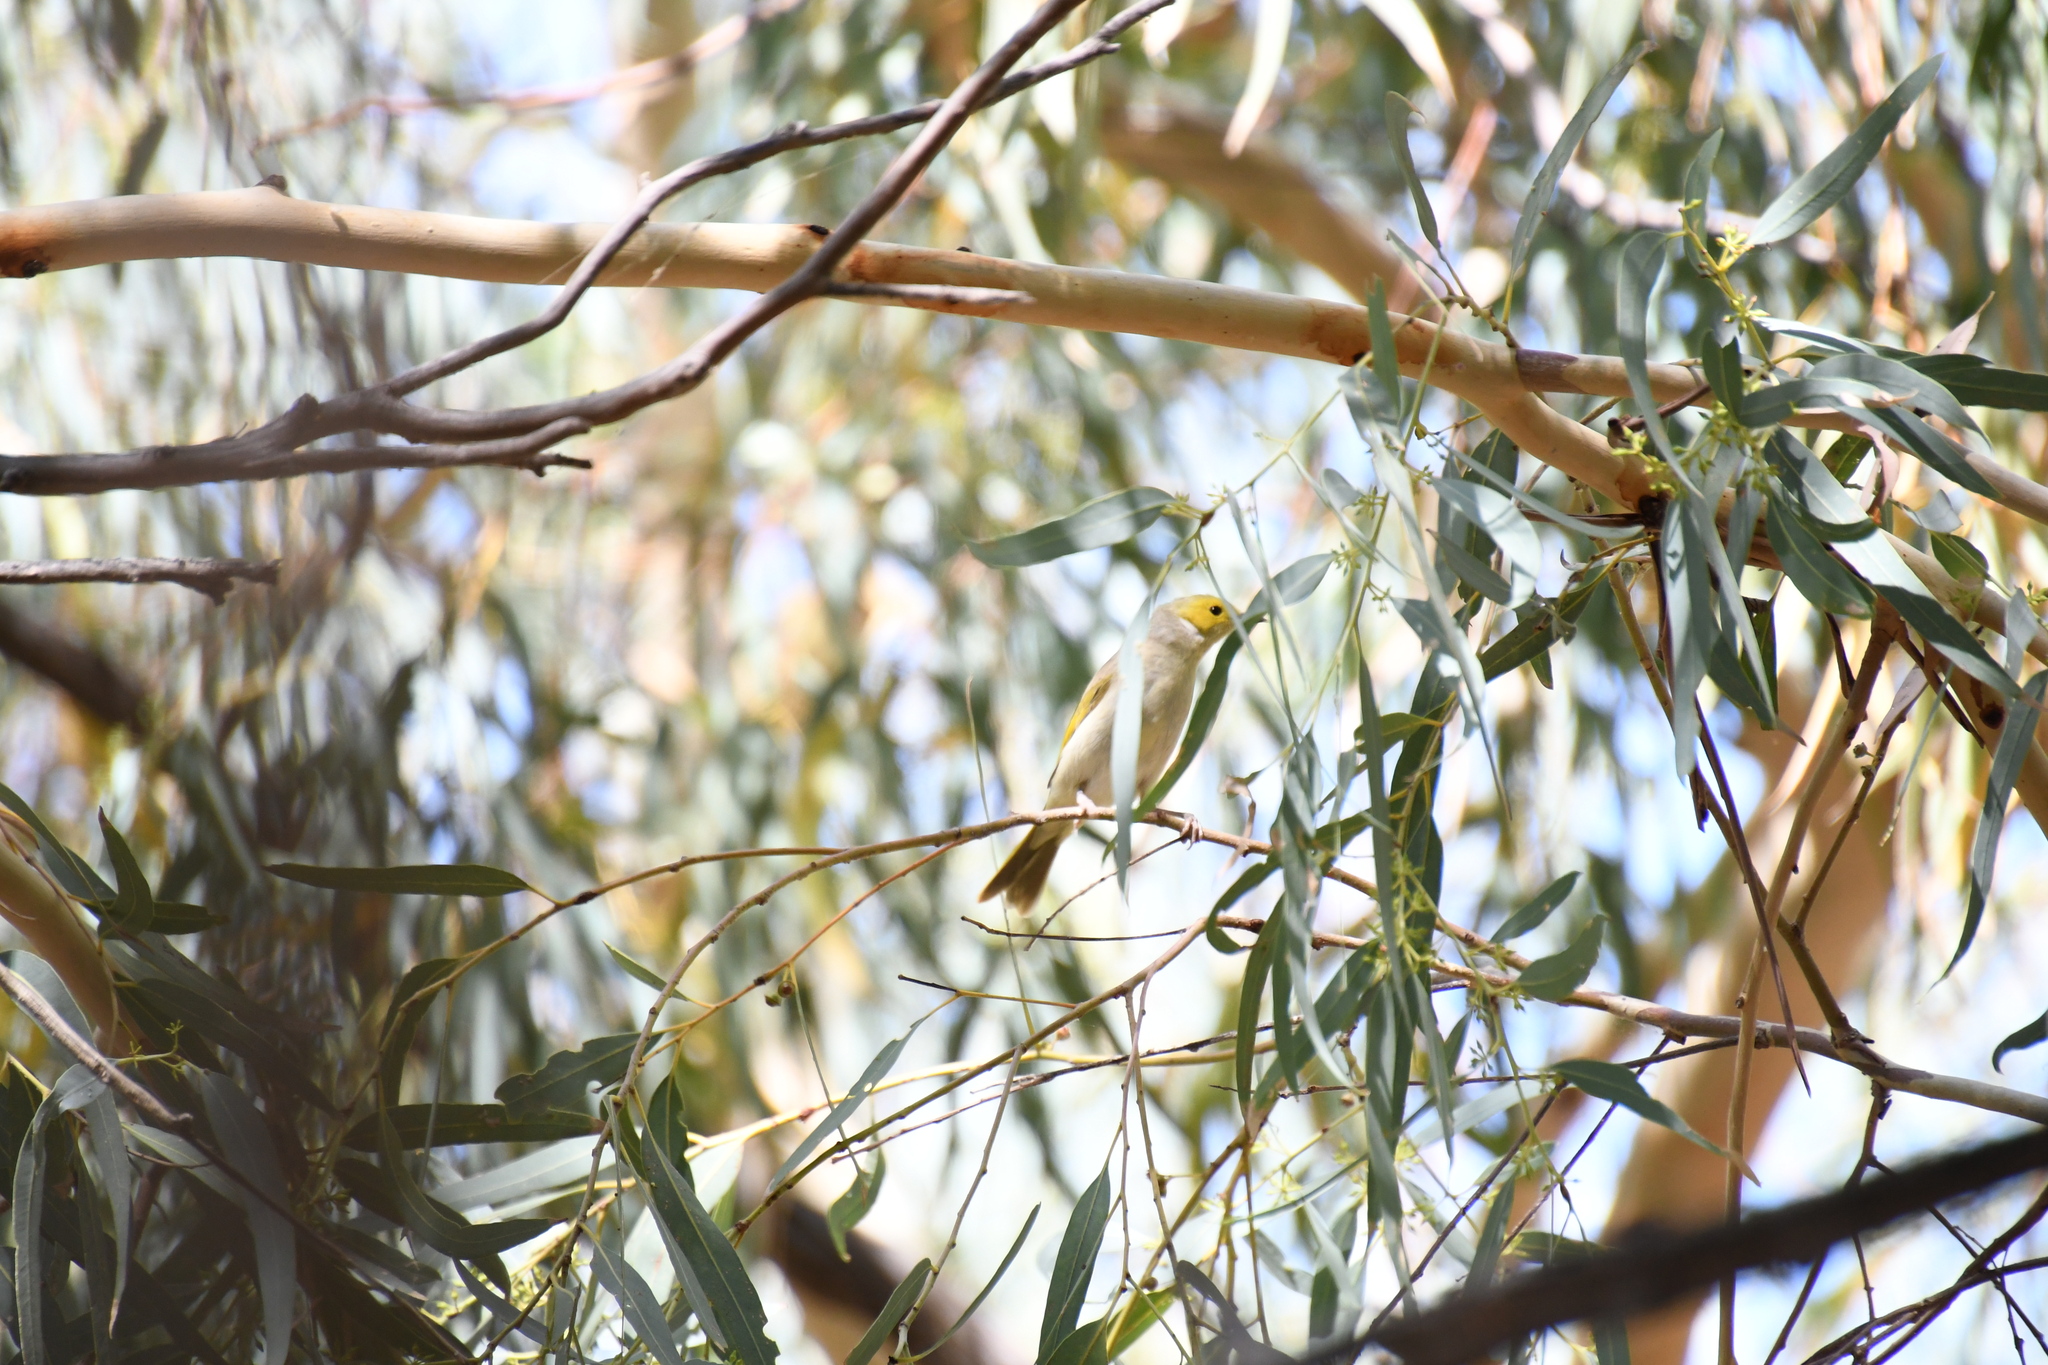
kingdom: Animalia
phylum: Chordata
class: Aves
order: Passeriformes
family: Meliphagidae
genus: Ptilotula
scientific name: Ptilotula penicillata
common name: White-plumed honeyeater
